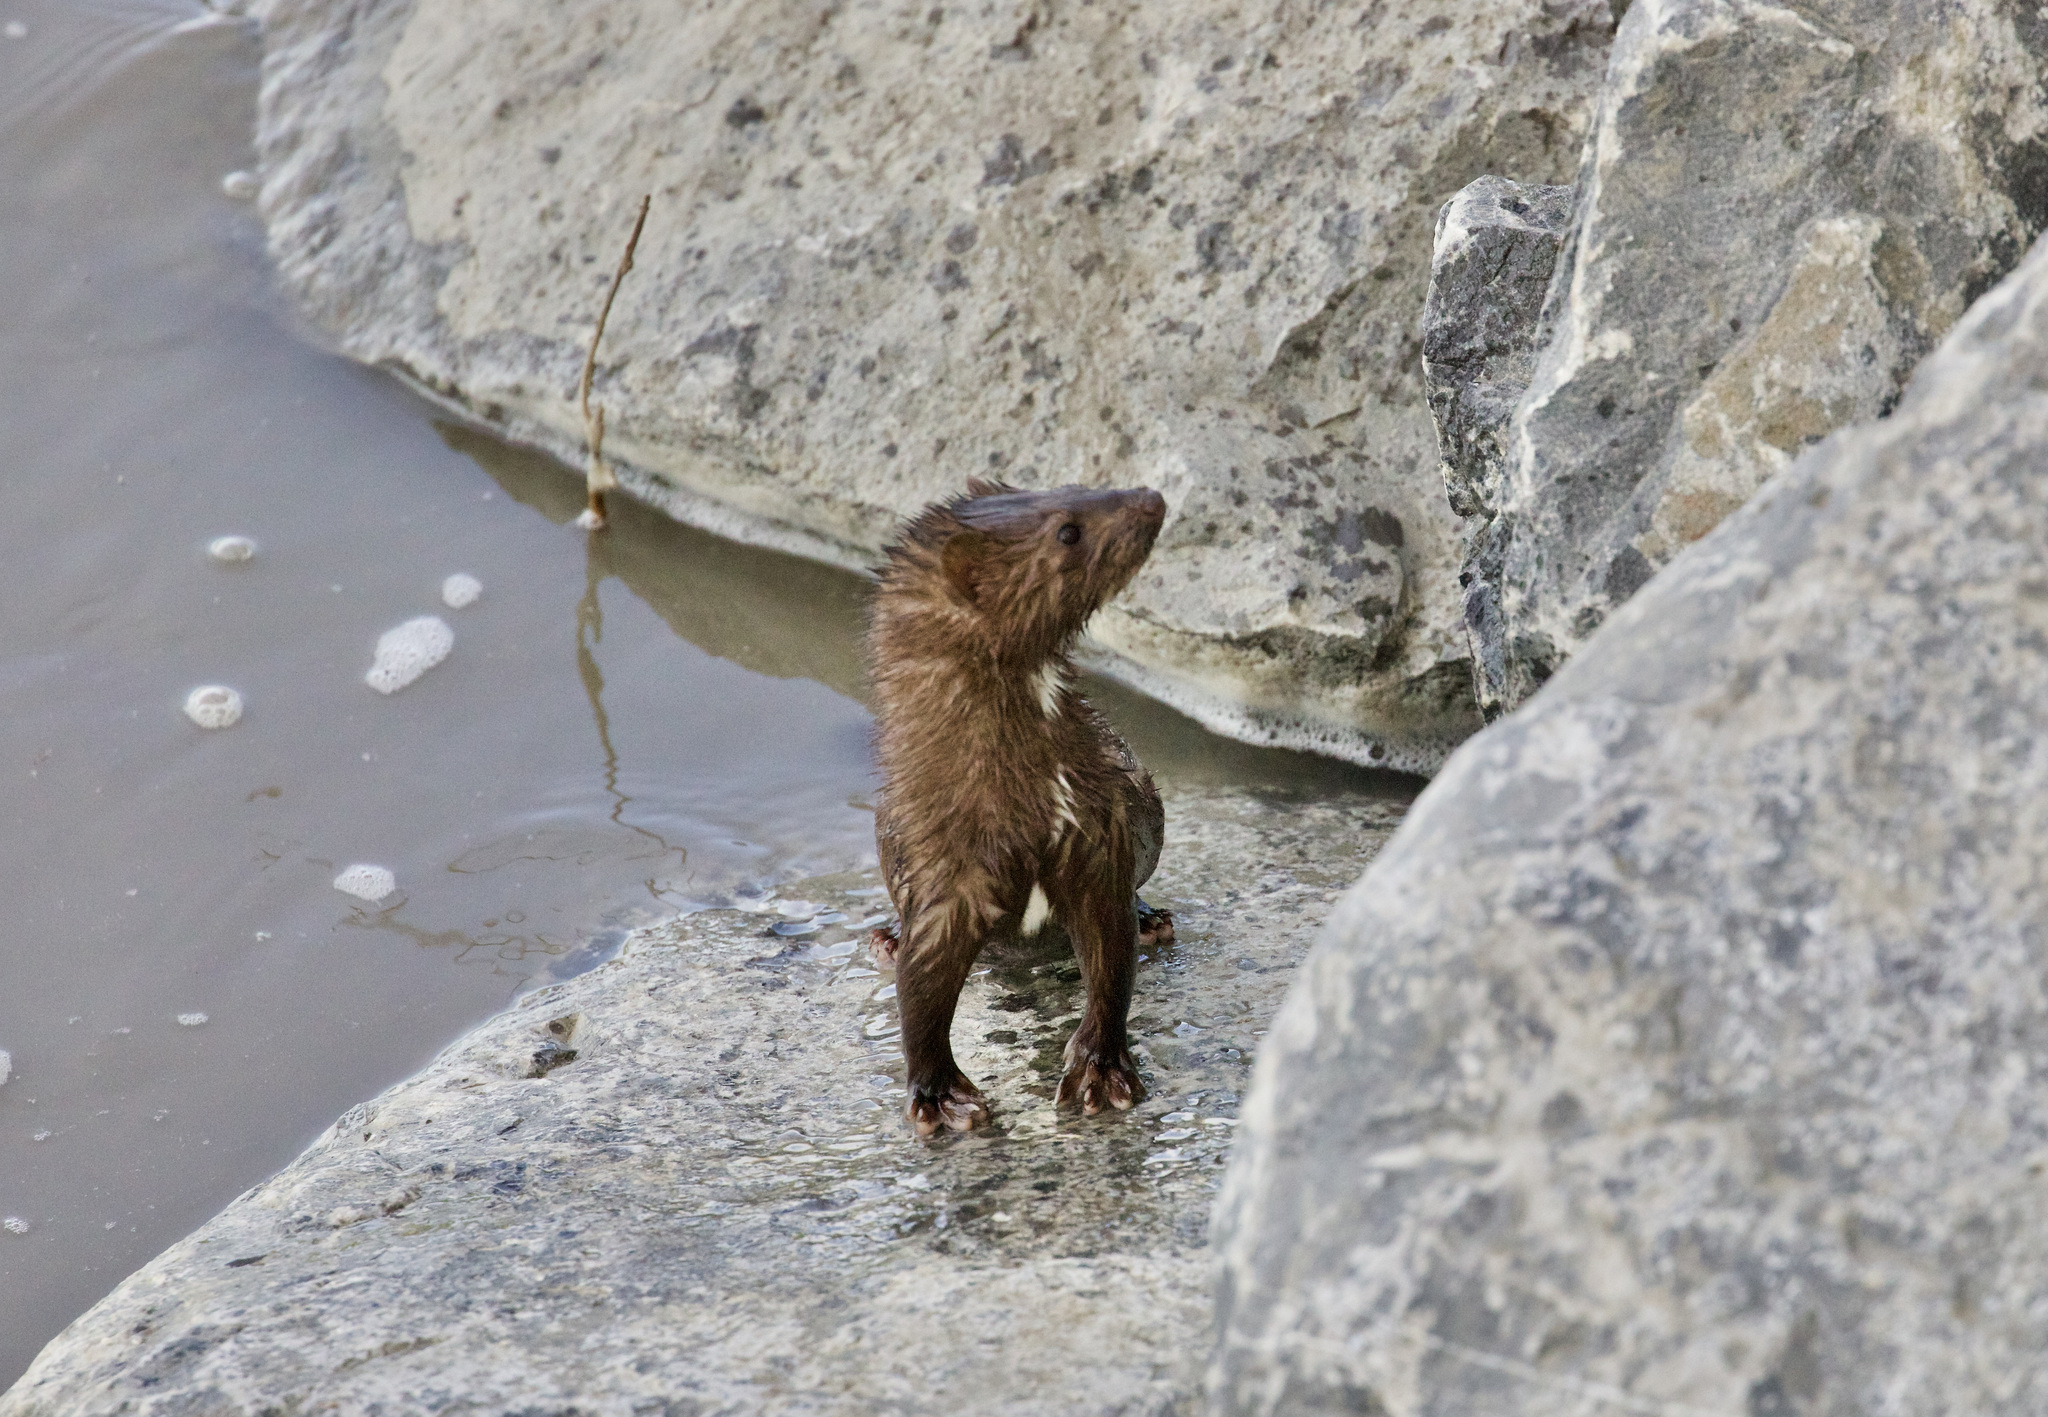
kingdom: Animalia
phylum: Chordata
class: Mammalia
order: Carnivora
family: Mustelidae
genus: Mustela
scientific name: Mustela
